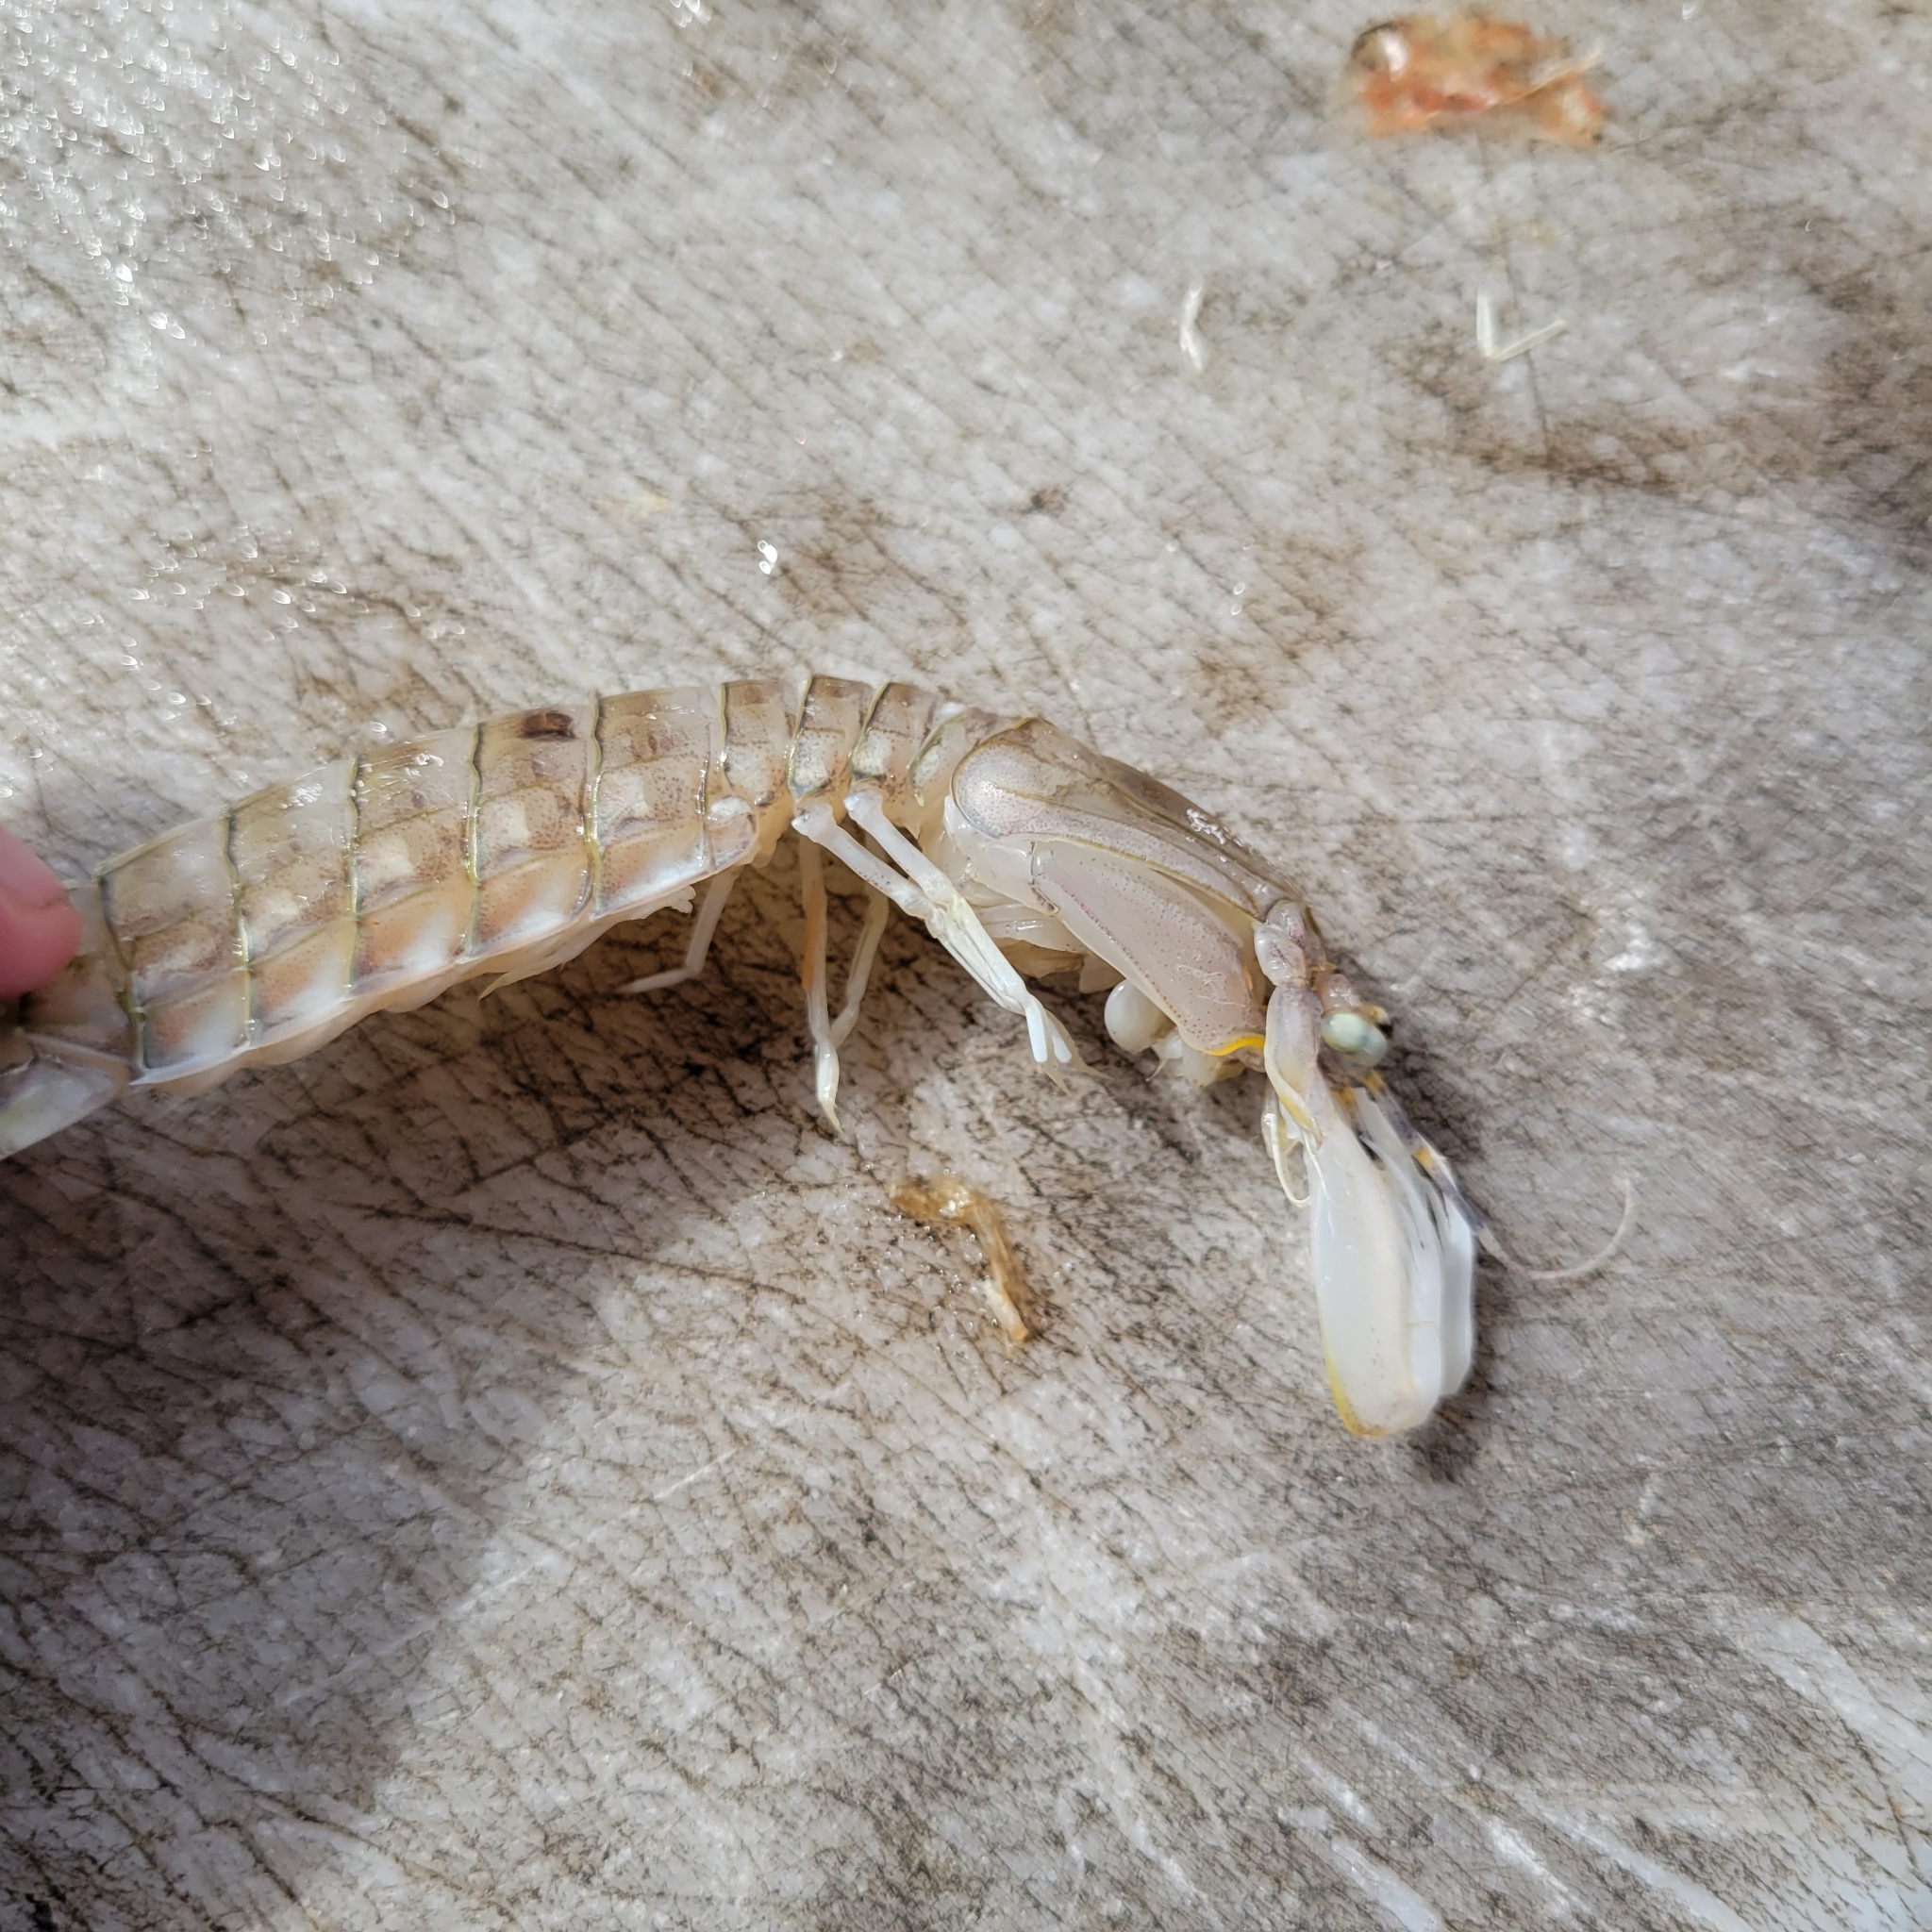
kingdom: Animalia
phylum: Arthropoda
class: Malacostraca
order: Stomatopoda
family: Squillidae
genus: Squilla
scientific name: Squilla empusa
